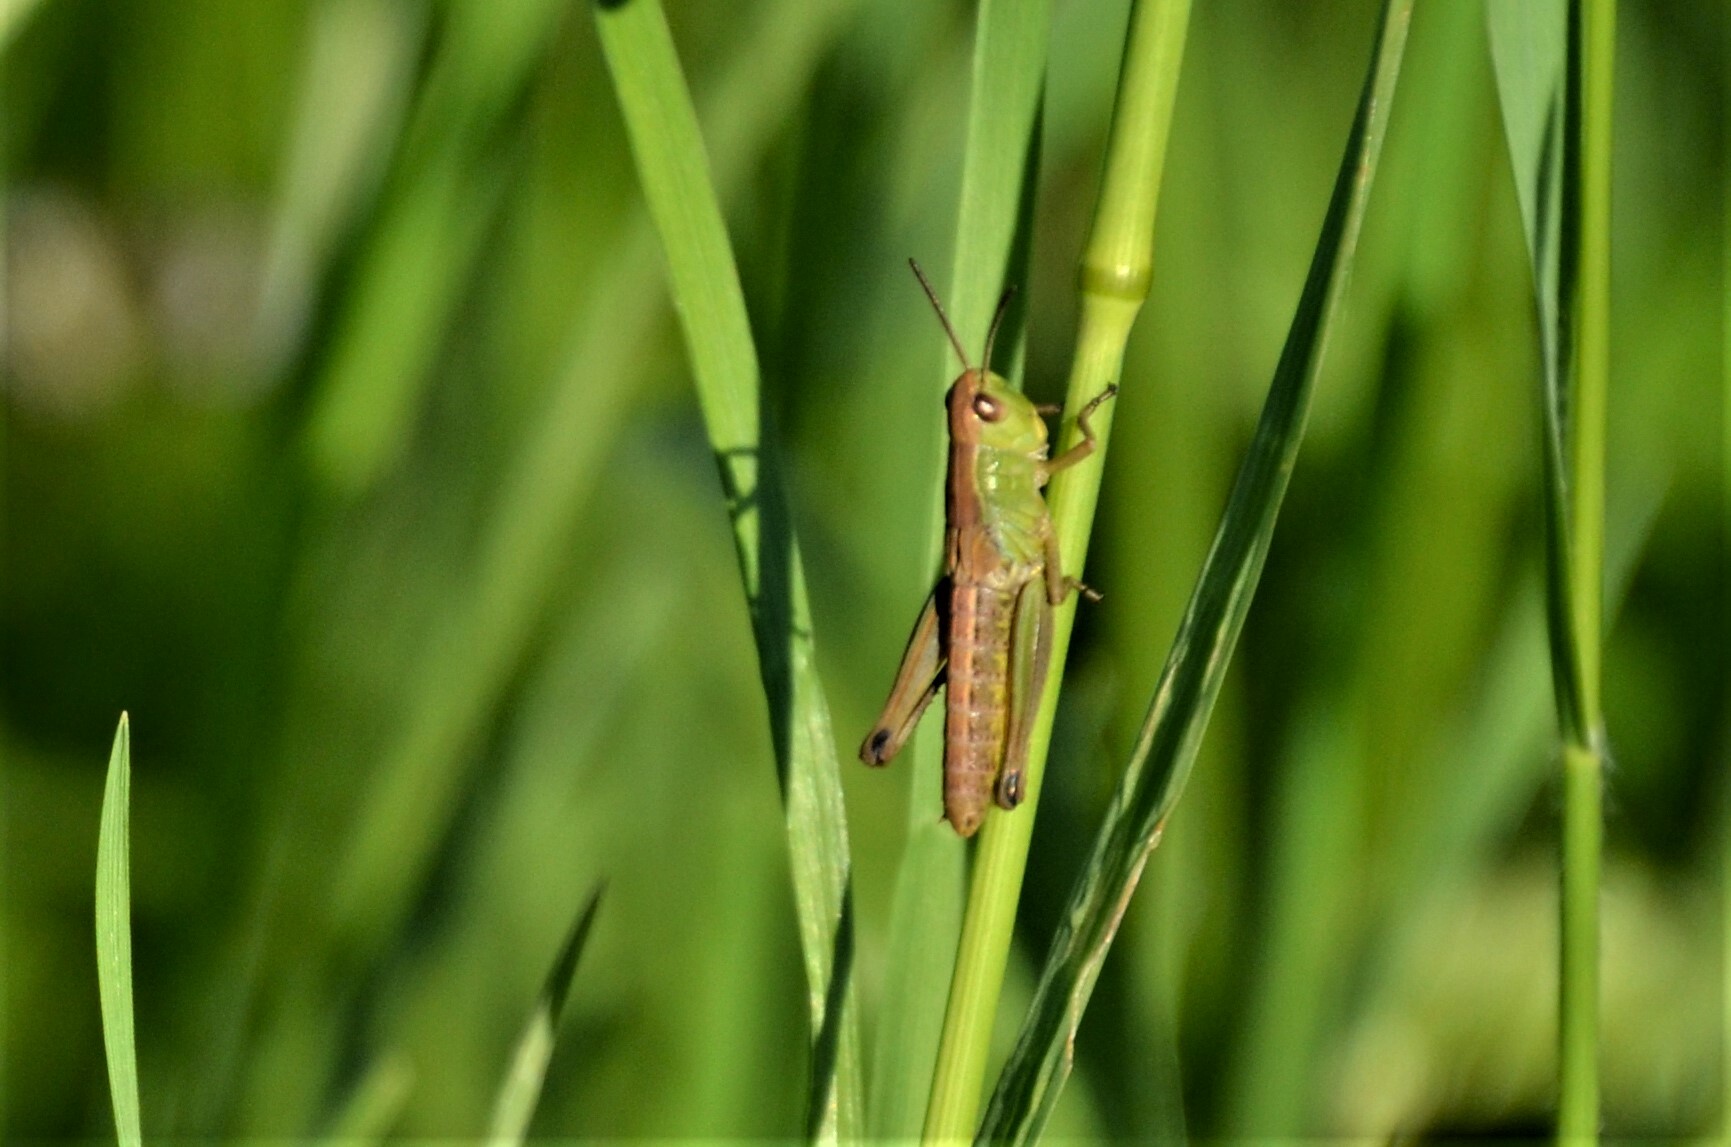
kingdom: Animalia
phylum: Arthropoda
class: Insecta
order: Orthoptera
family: Acrididae
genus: Pseudochorthippus
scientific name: Pseudochorthippus parallelus
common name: Meadow grasshopper
